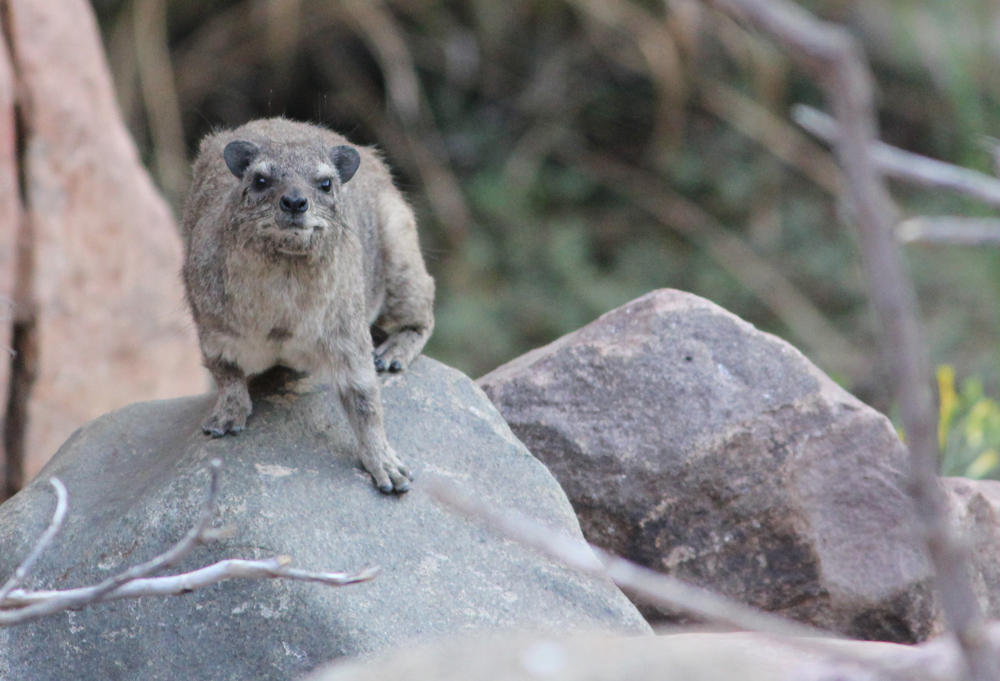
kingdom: Animalia
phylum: Chordata
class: Mammalia
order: Hyracoidea
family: Procaviidae
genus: Procavia
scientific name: Procavia capensis
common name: Rock hyrax
